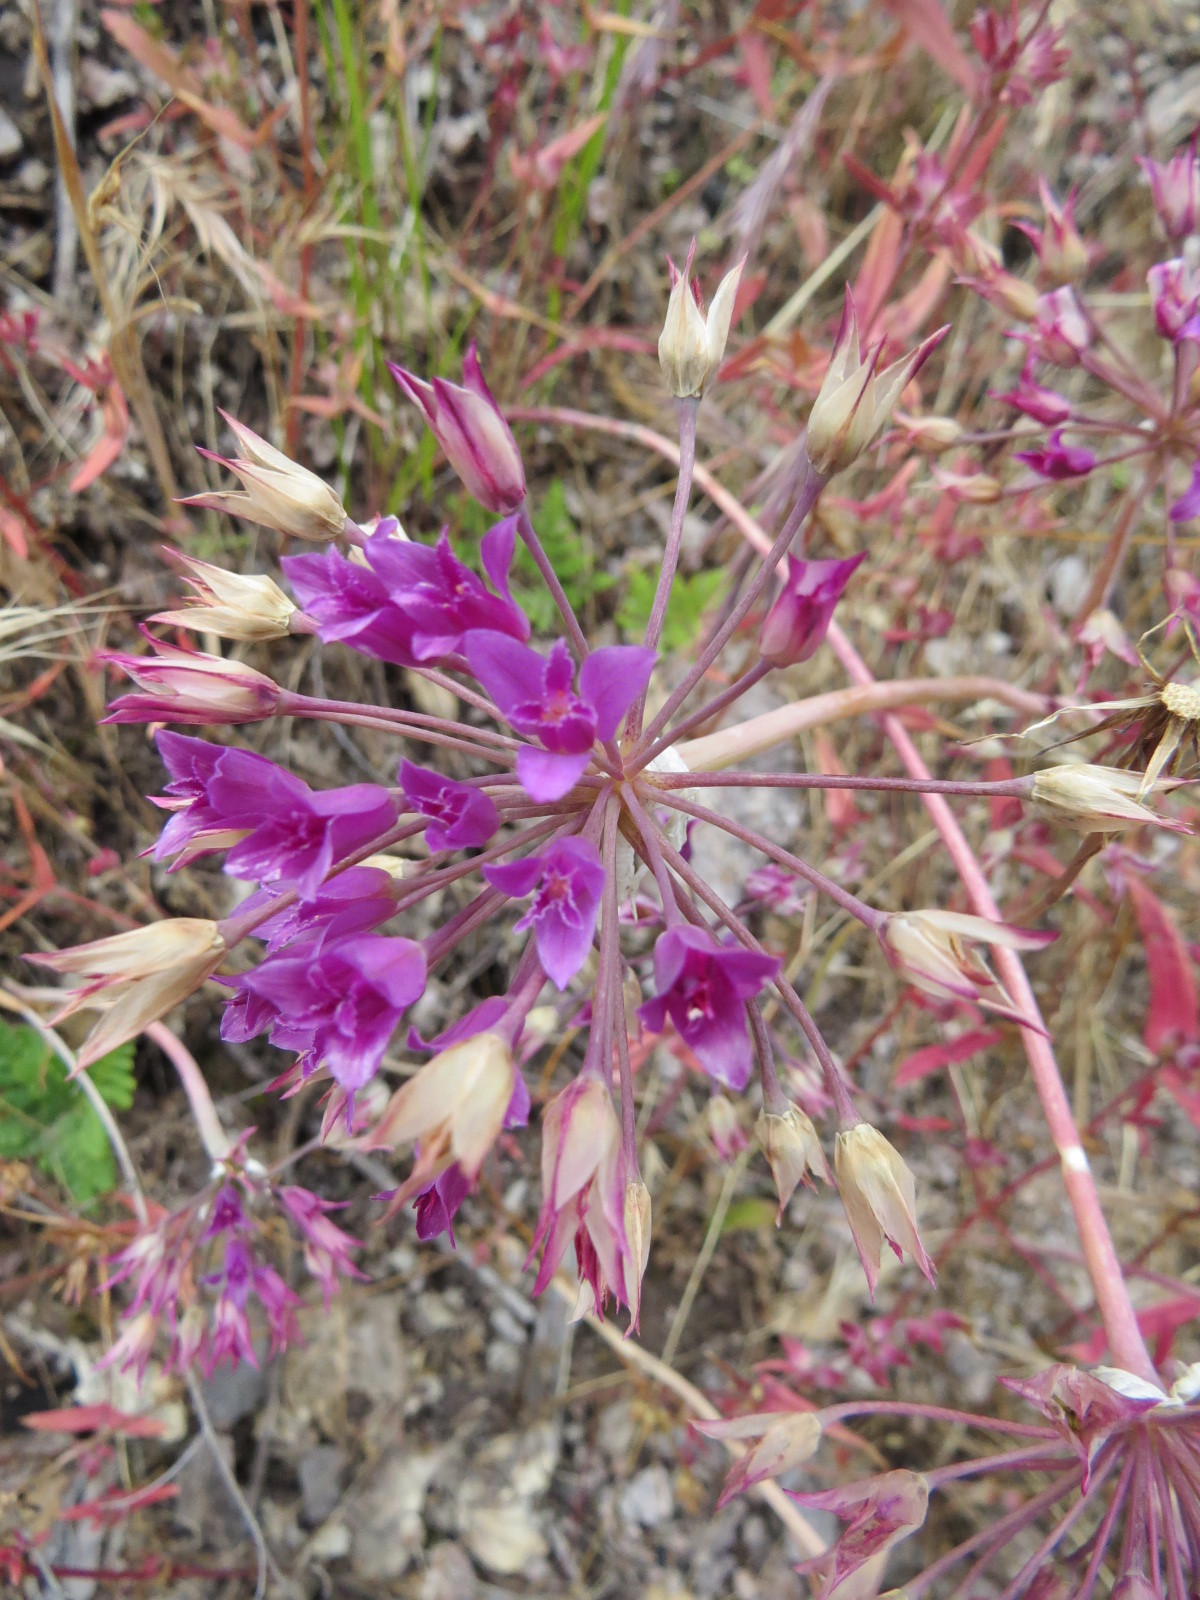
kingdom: Plantae
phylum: Tracheophyta
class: Liliopsida
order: Asparagales
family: Amaryllidaceae
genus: Allium
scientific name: Allium crispum
